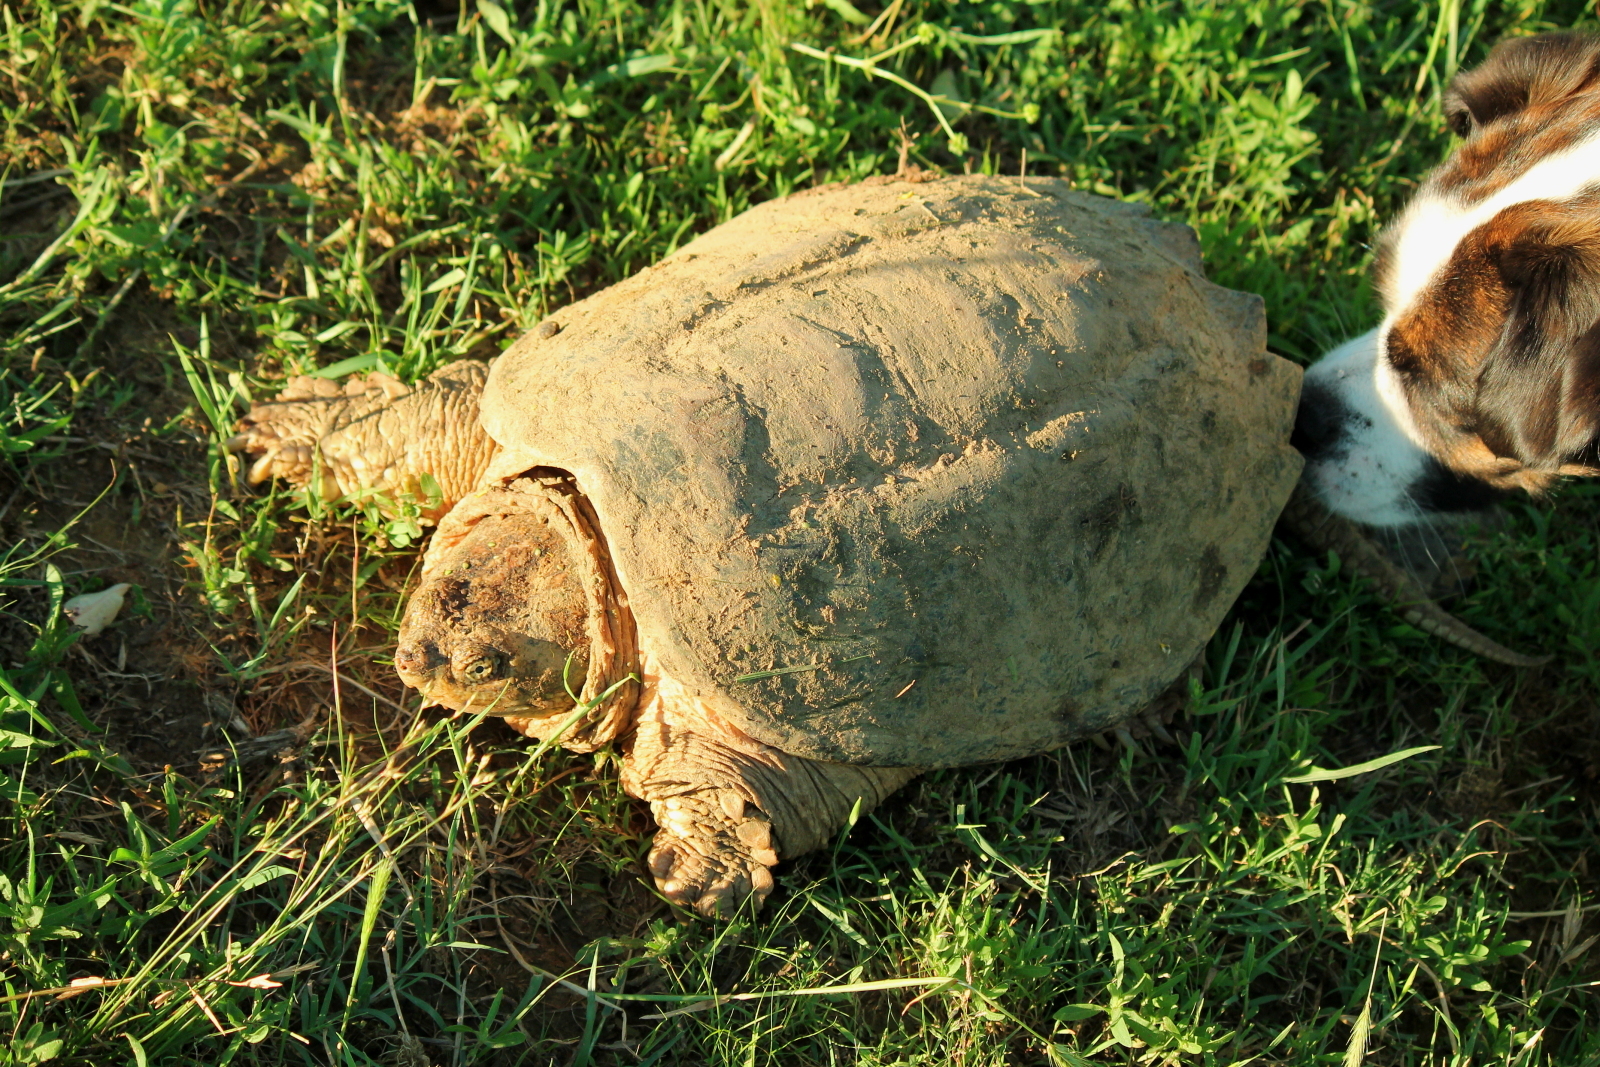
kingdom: Animalia
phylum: Chordata
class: Testudines
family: Chelydridae
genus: Chelydra
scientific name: Chelydra serpentina
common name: Common snapping turtle
